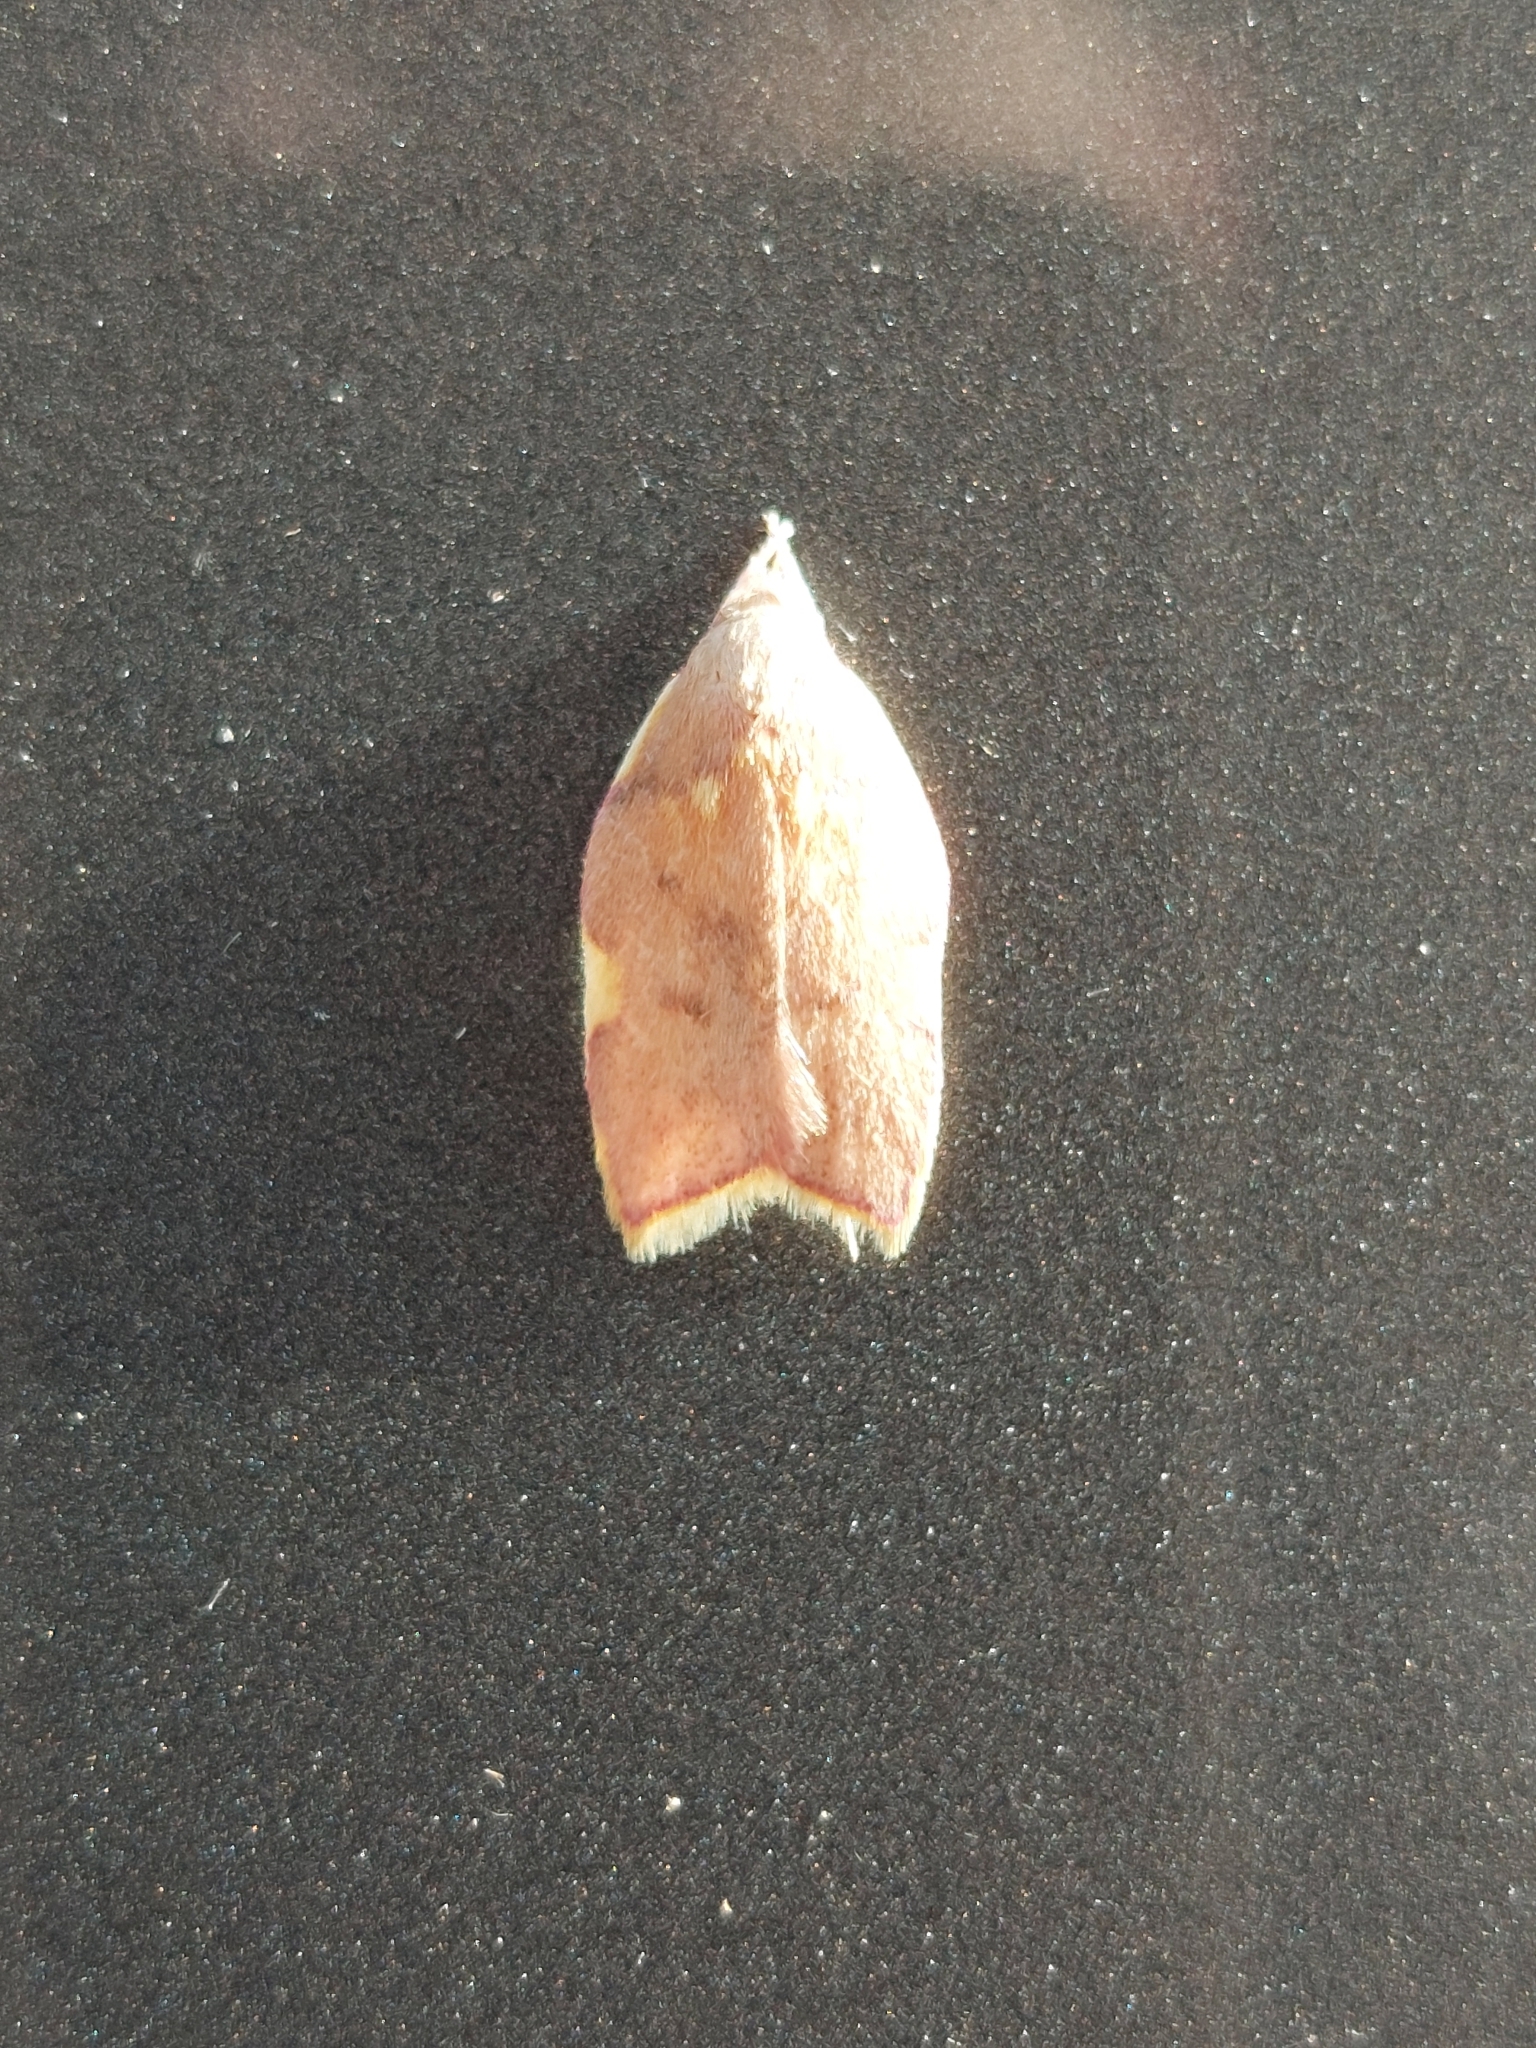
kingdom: Animalia
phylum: Arthropoda
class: Insecta
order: Lepidoptera
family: Peleopodidae
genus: Carcina
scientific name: Carcina quercana
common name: Moth
